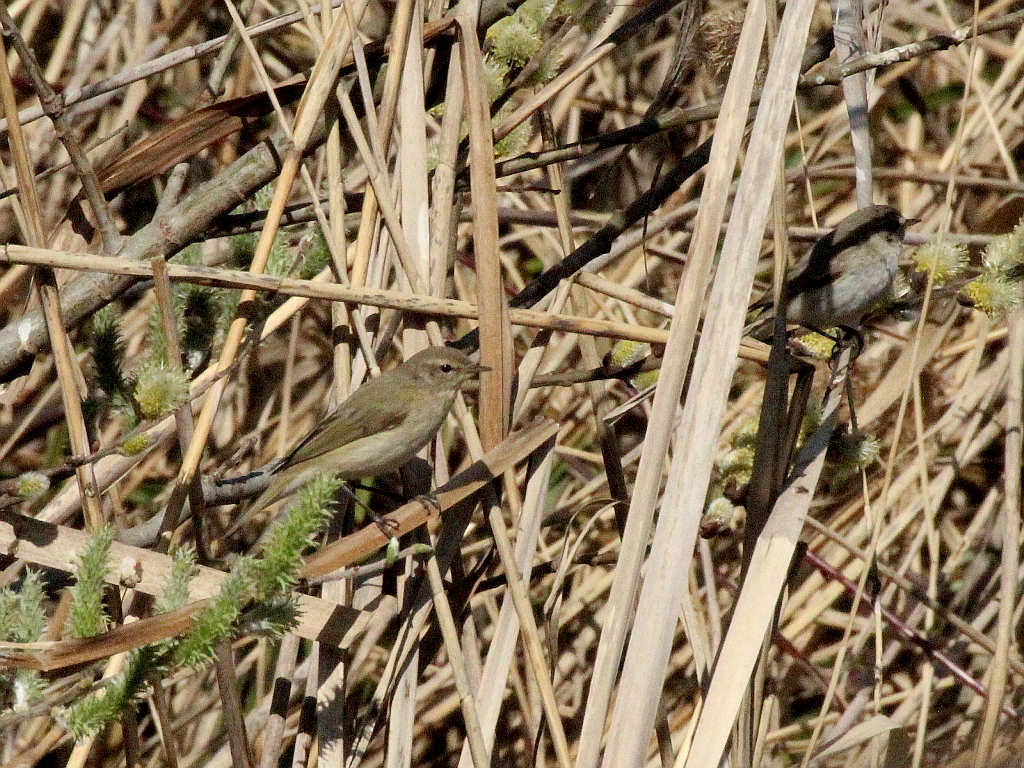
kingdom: Animalia
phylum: Chordata
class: Aves
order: Passeriformes
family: Phylloscopidae
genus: Phylloscopus
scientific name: Phylloscopus collybita
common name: Common chiffchaff
